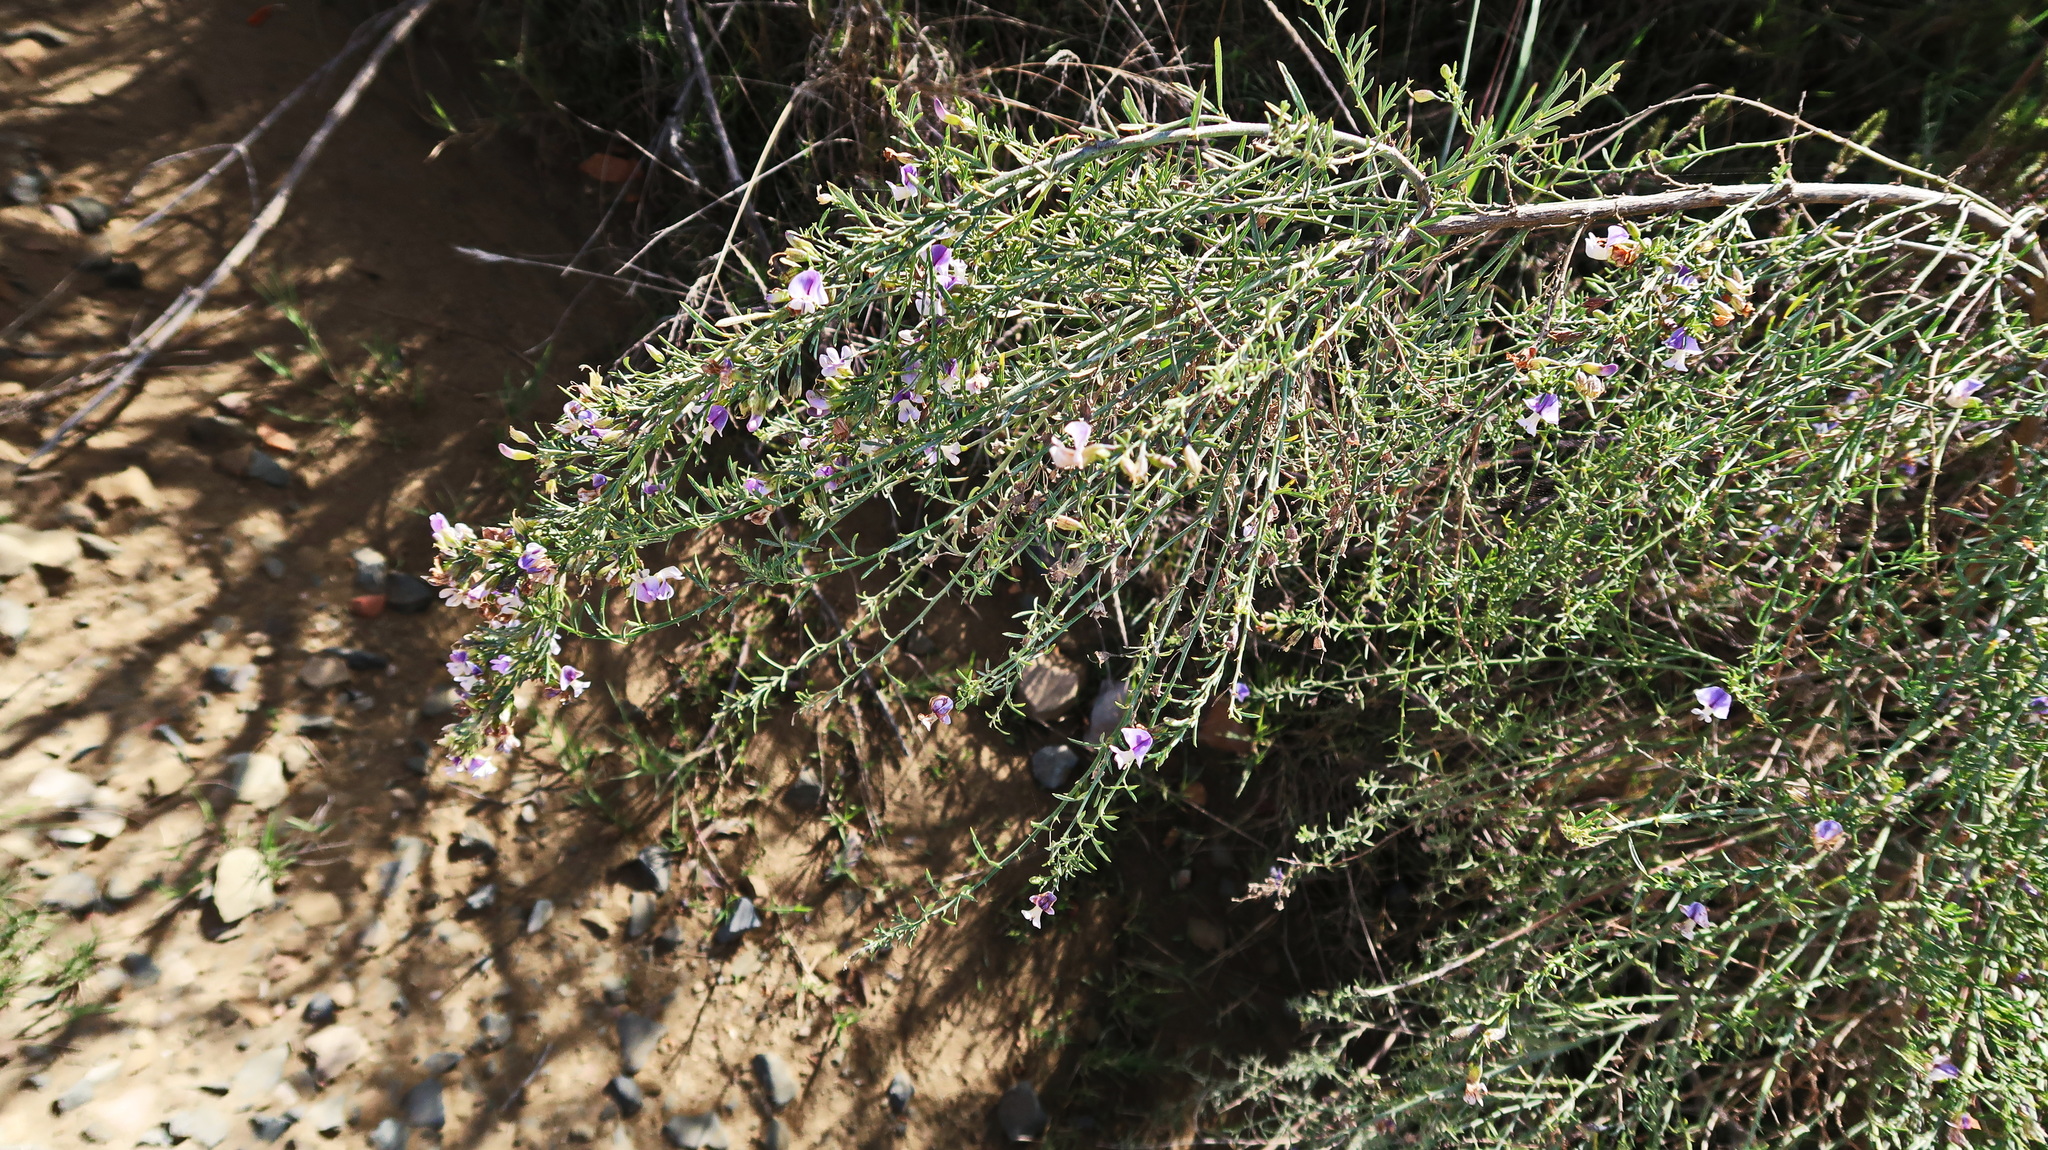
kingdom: Plantae
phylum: Tracheophyta
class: Magnoliopsida
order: Fabales
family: Fabaceae
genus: Psoralea
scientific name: Psoralea forbesiae
